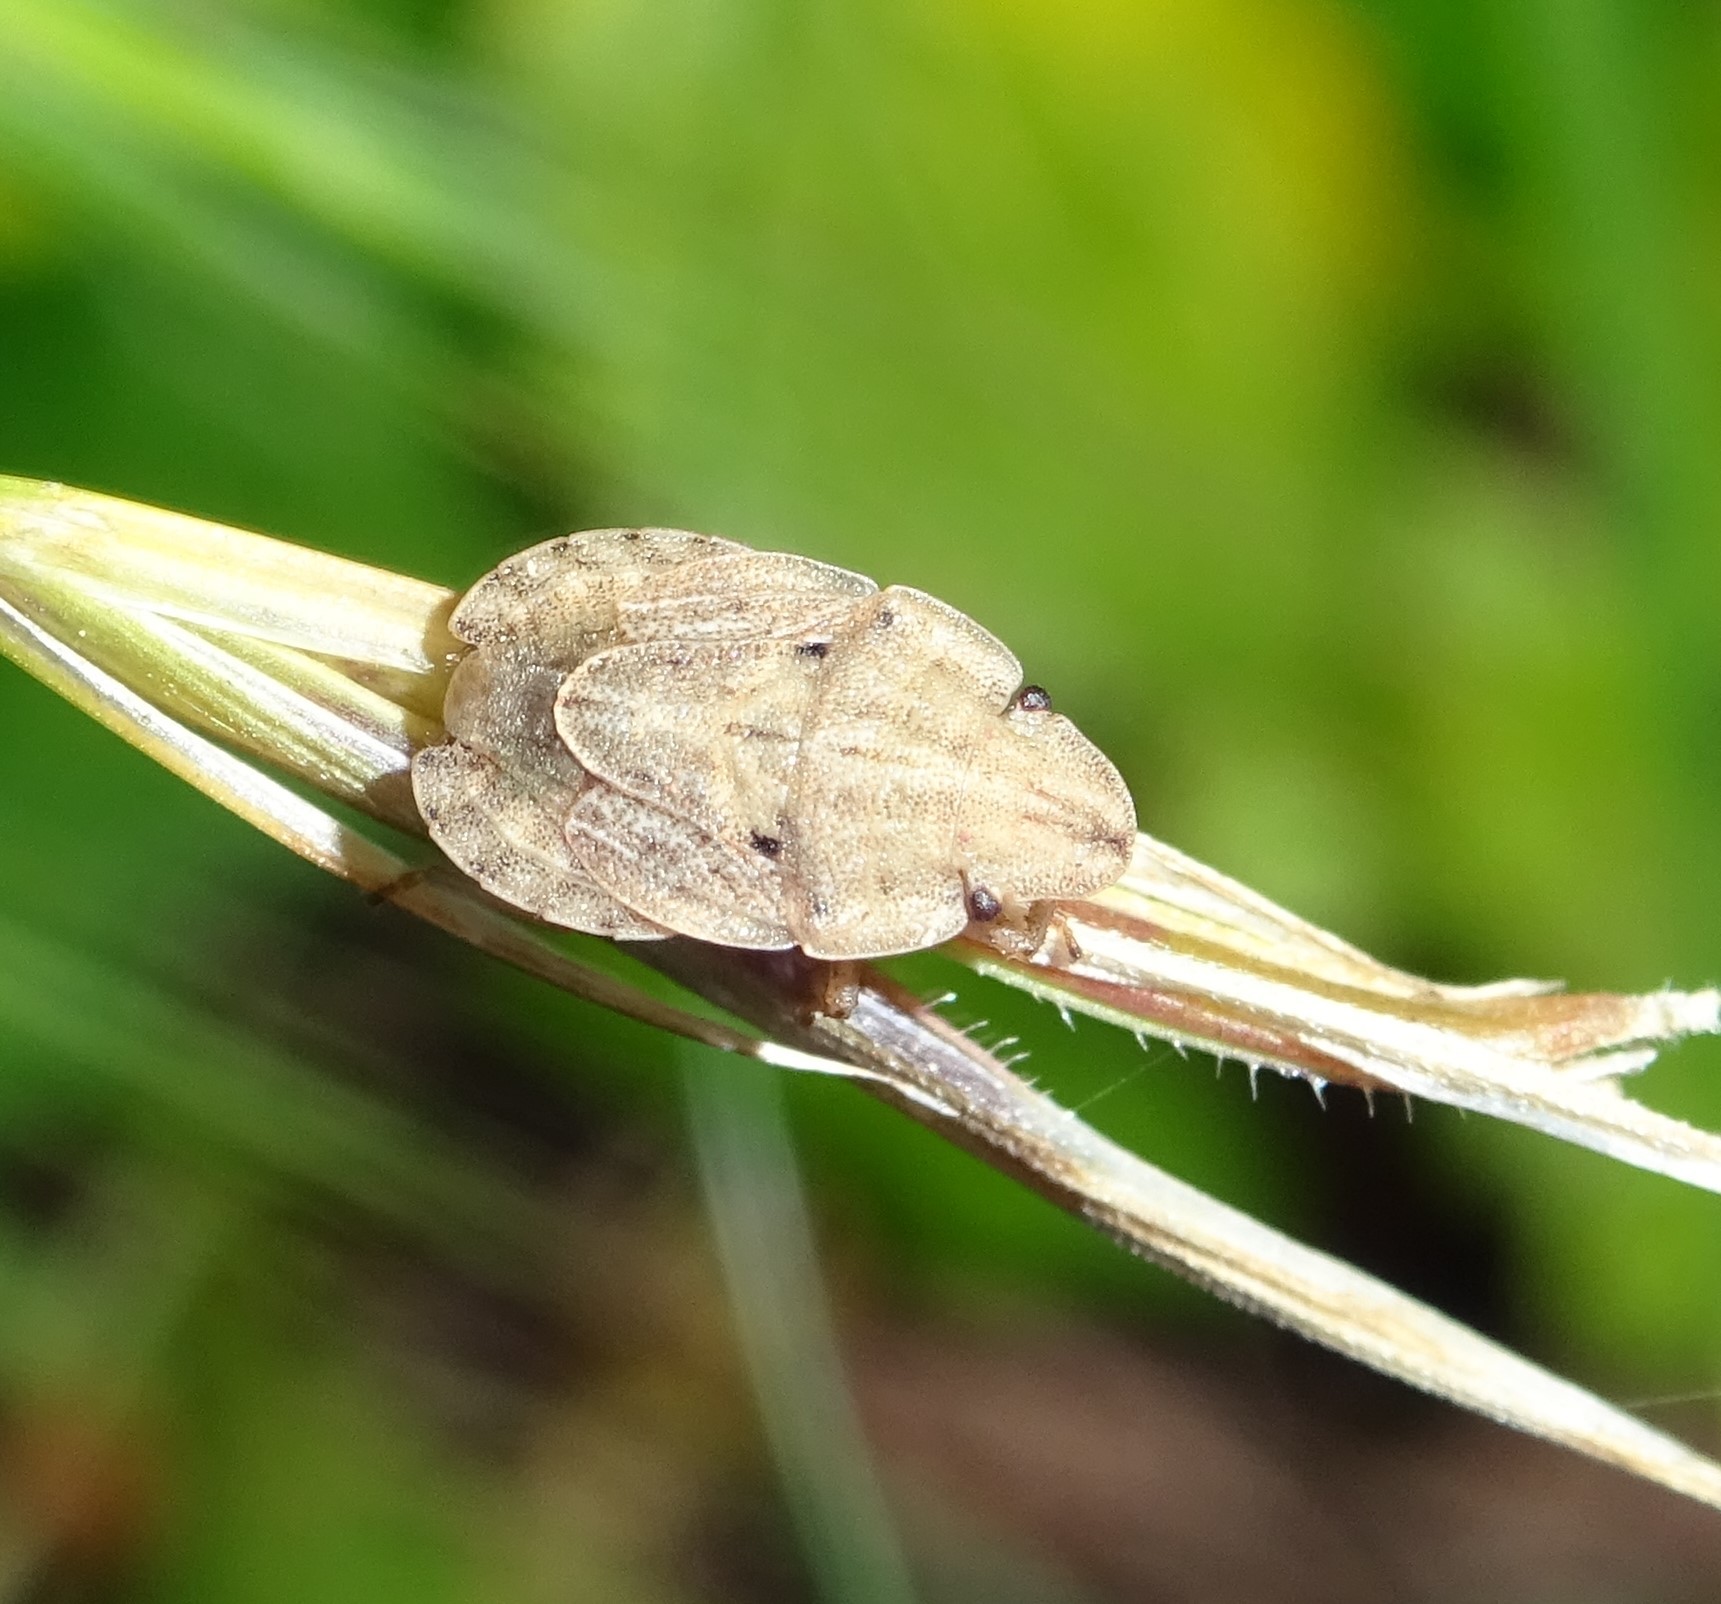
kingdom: Animalia
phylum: Arthropoda
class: Insecta
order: Hemiptera
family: Pentatomidae
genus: Sciocoris
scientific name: Sciocoris sulcatus
